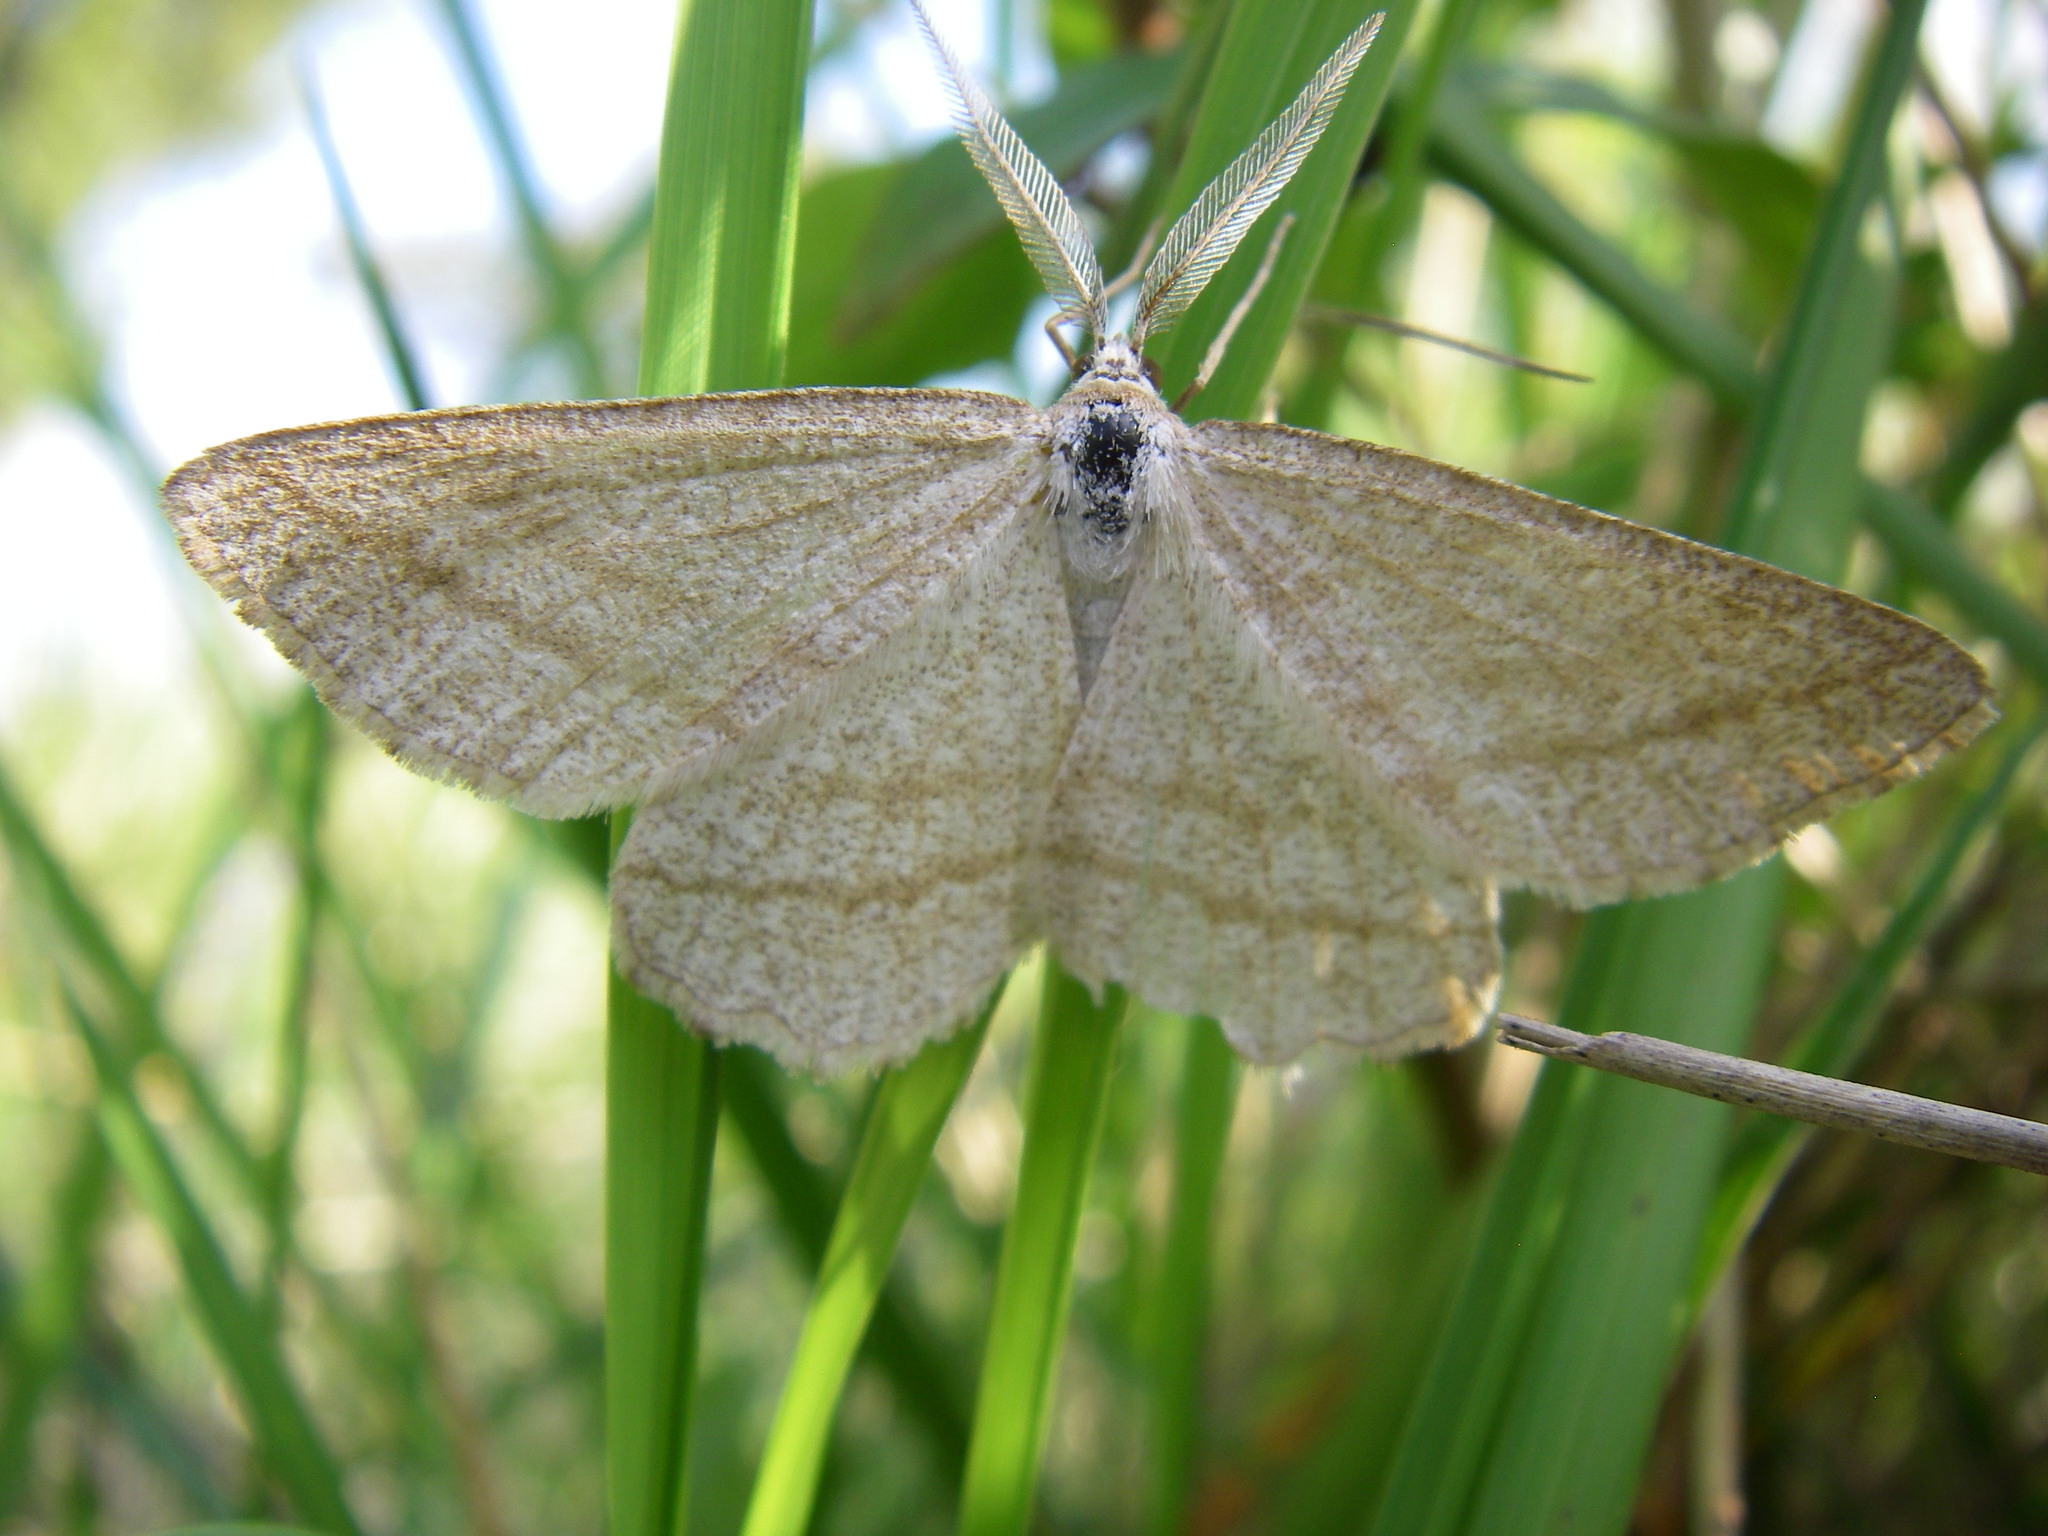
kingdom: Animalia
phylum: Arthropoda
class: Insecta
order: Lepidoptera
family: Geometridae
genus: Perconia
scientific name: Perconia strigillaria
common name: Grass wave
